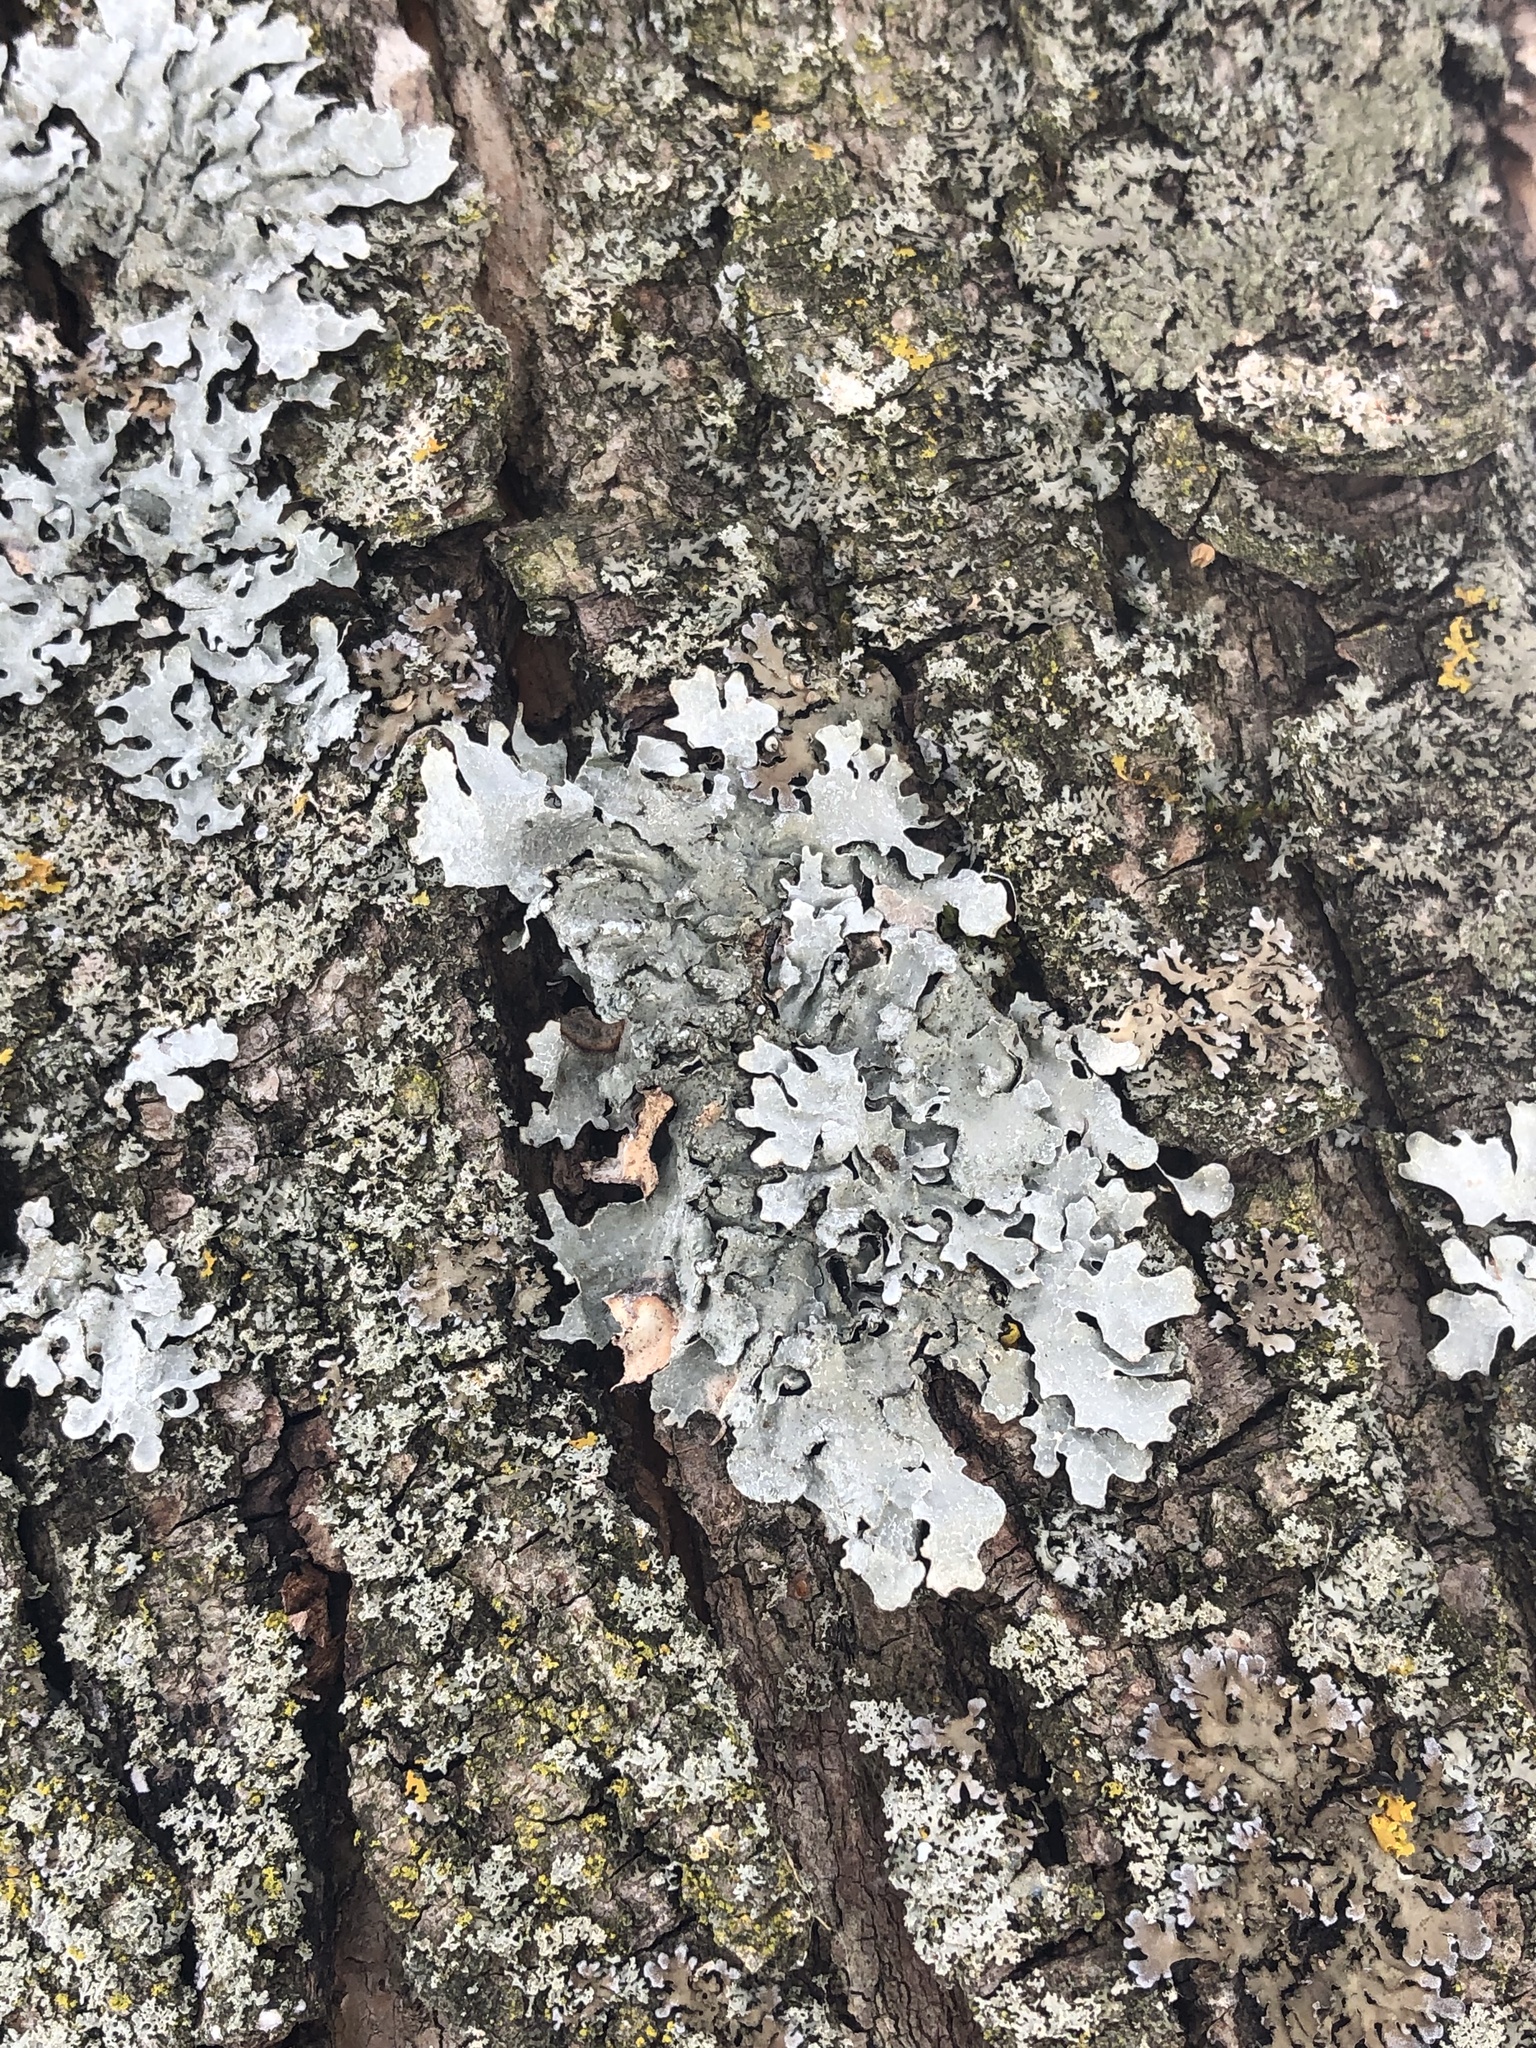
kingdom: Fungi
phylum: Ascomycota
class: Lecanoromycetes
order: Lecanorales
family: Parmeliaceae
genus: Parmelia
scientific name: Parmelia sulcata
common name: Netted shield lichen
